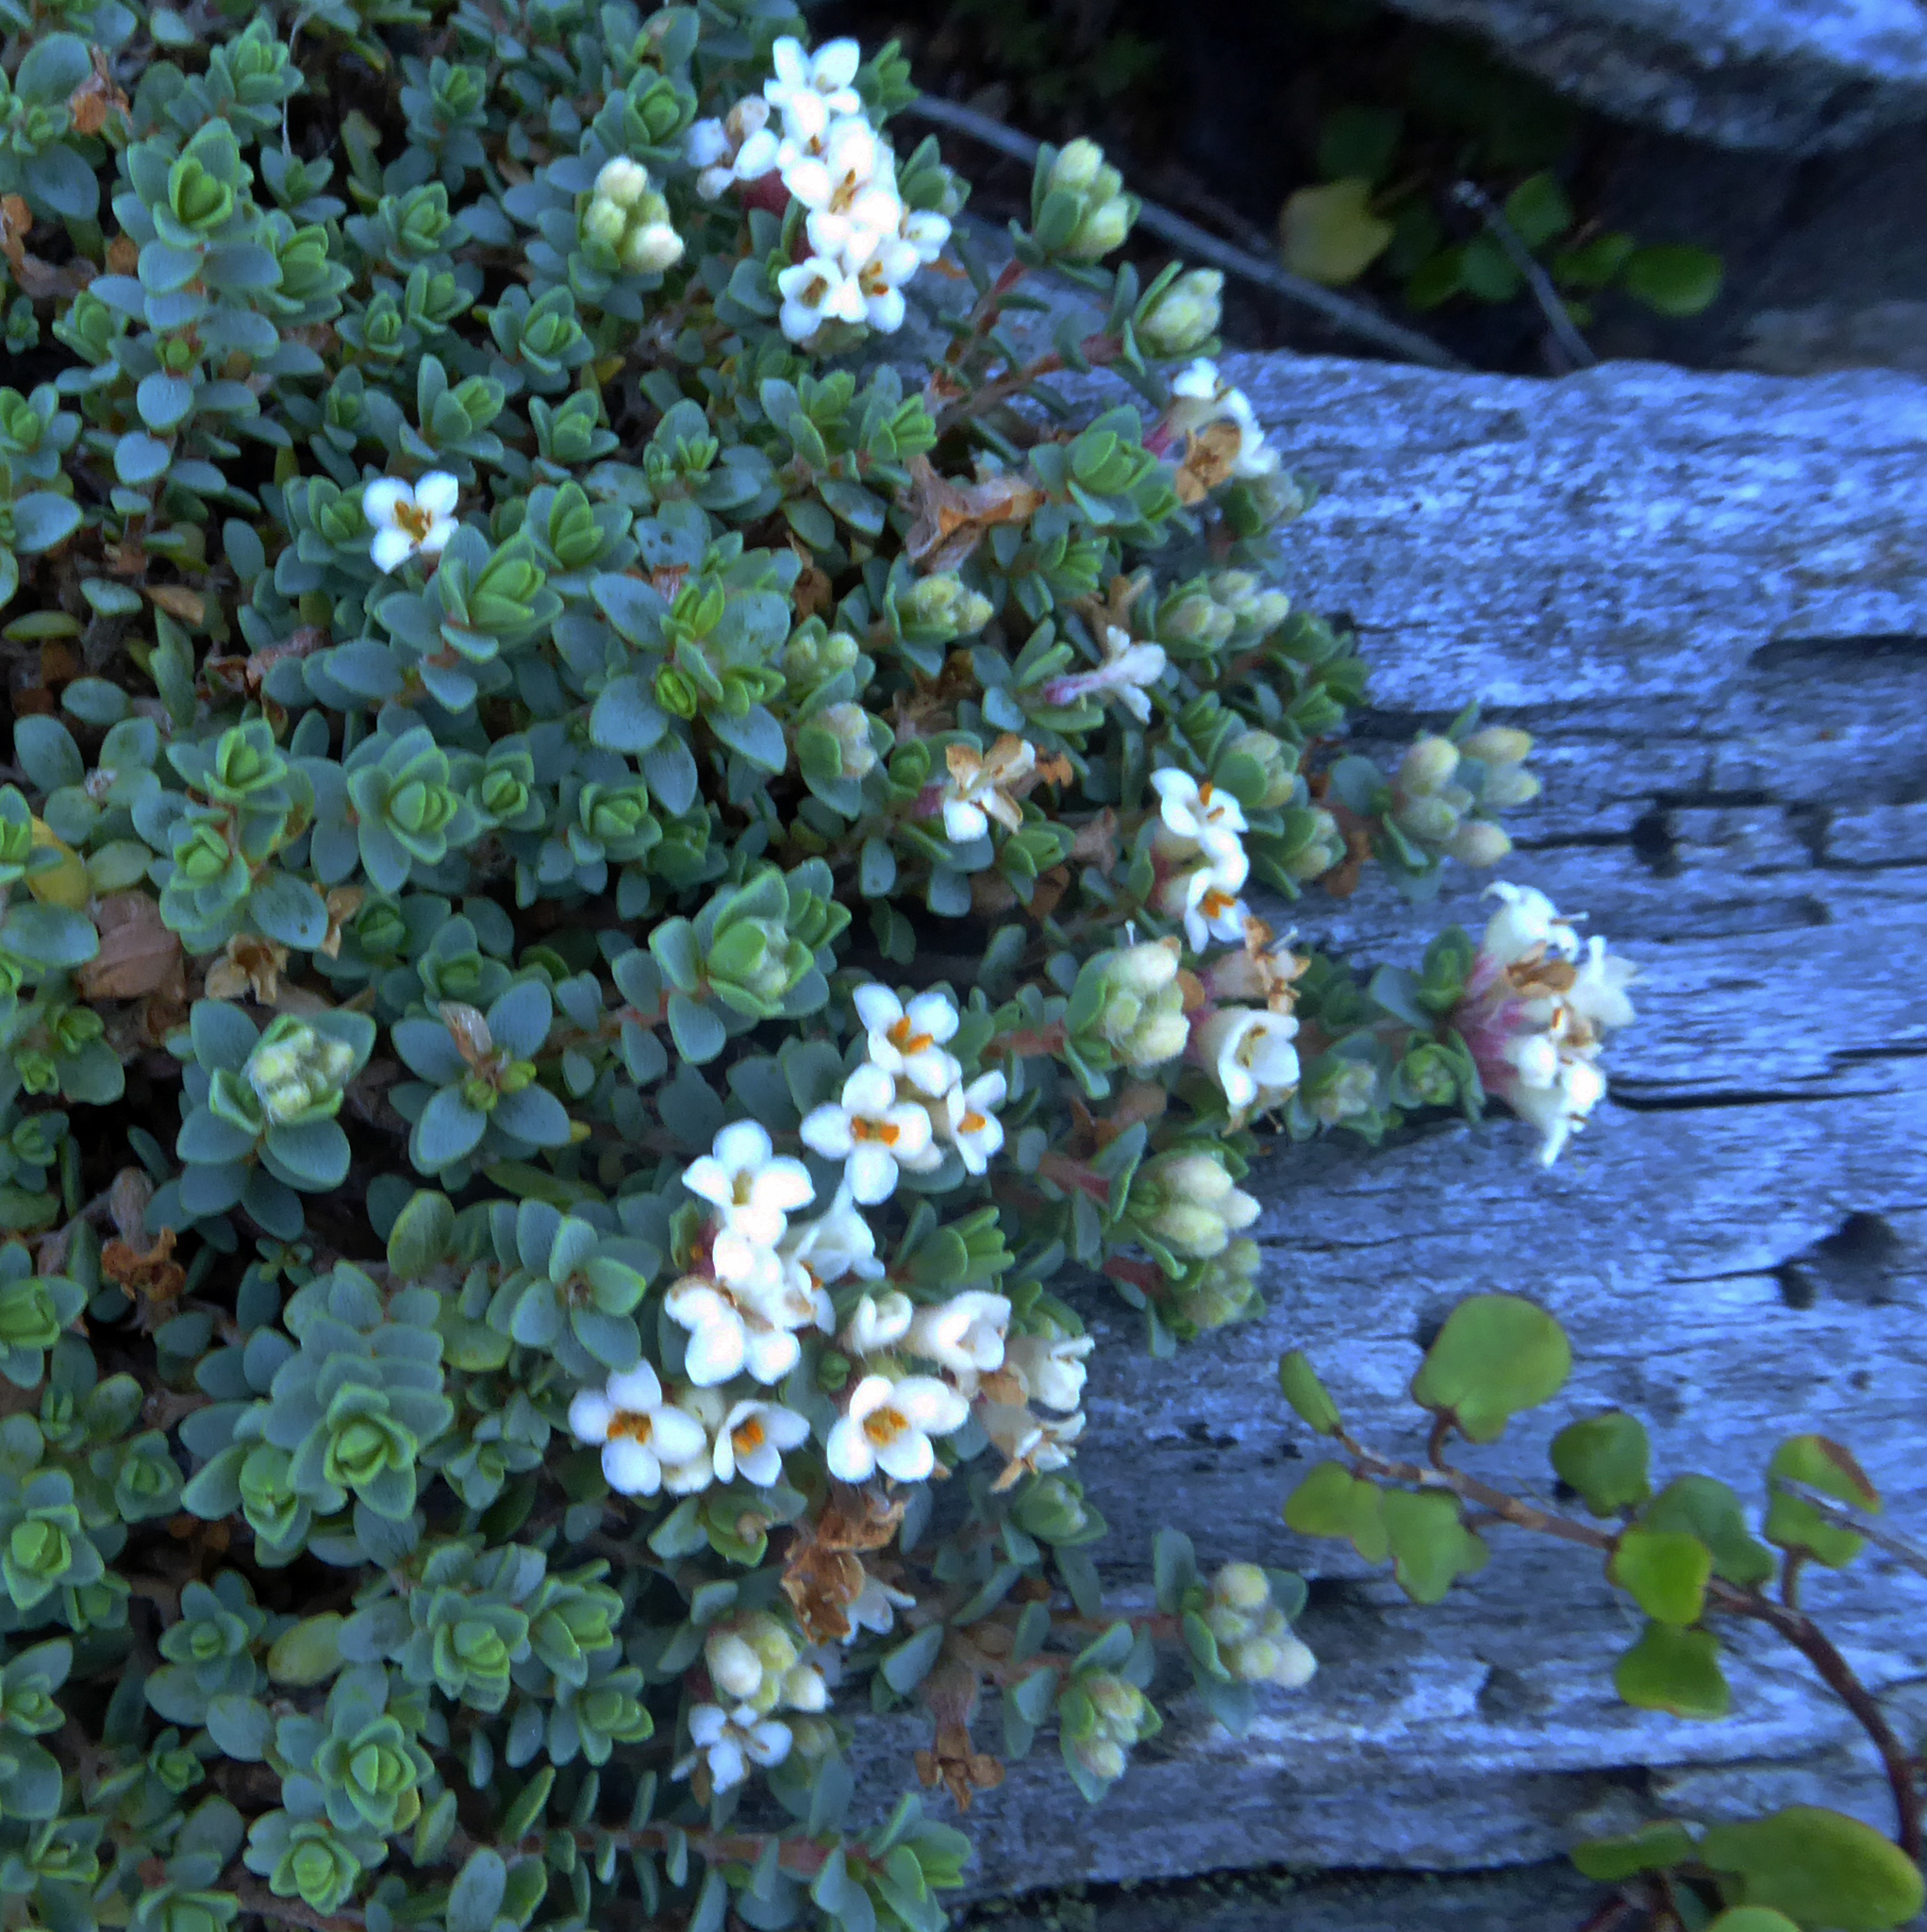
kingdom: Plantae
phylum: Tracheophyta
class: Magnoliopsida
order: Malvales
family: Thymelaeaceae
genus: Pimelea
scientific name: Pimelea prostrata
